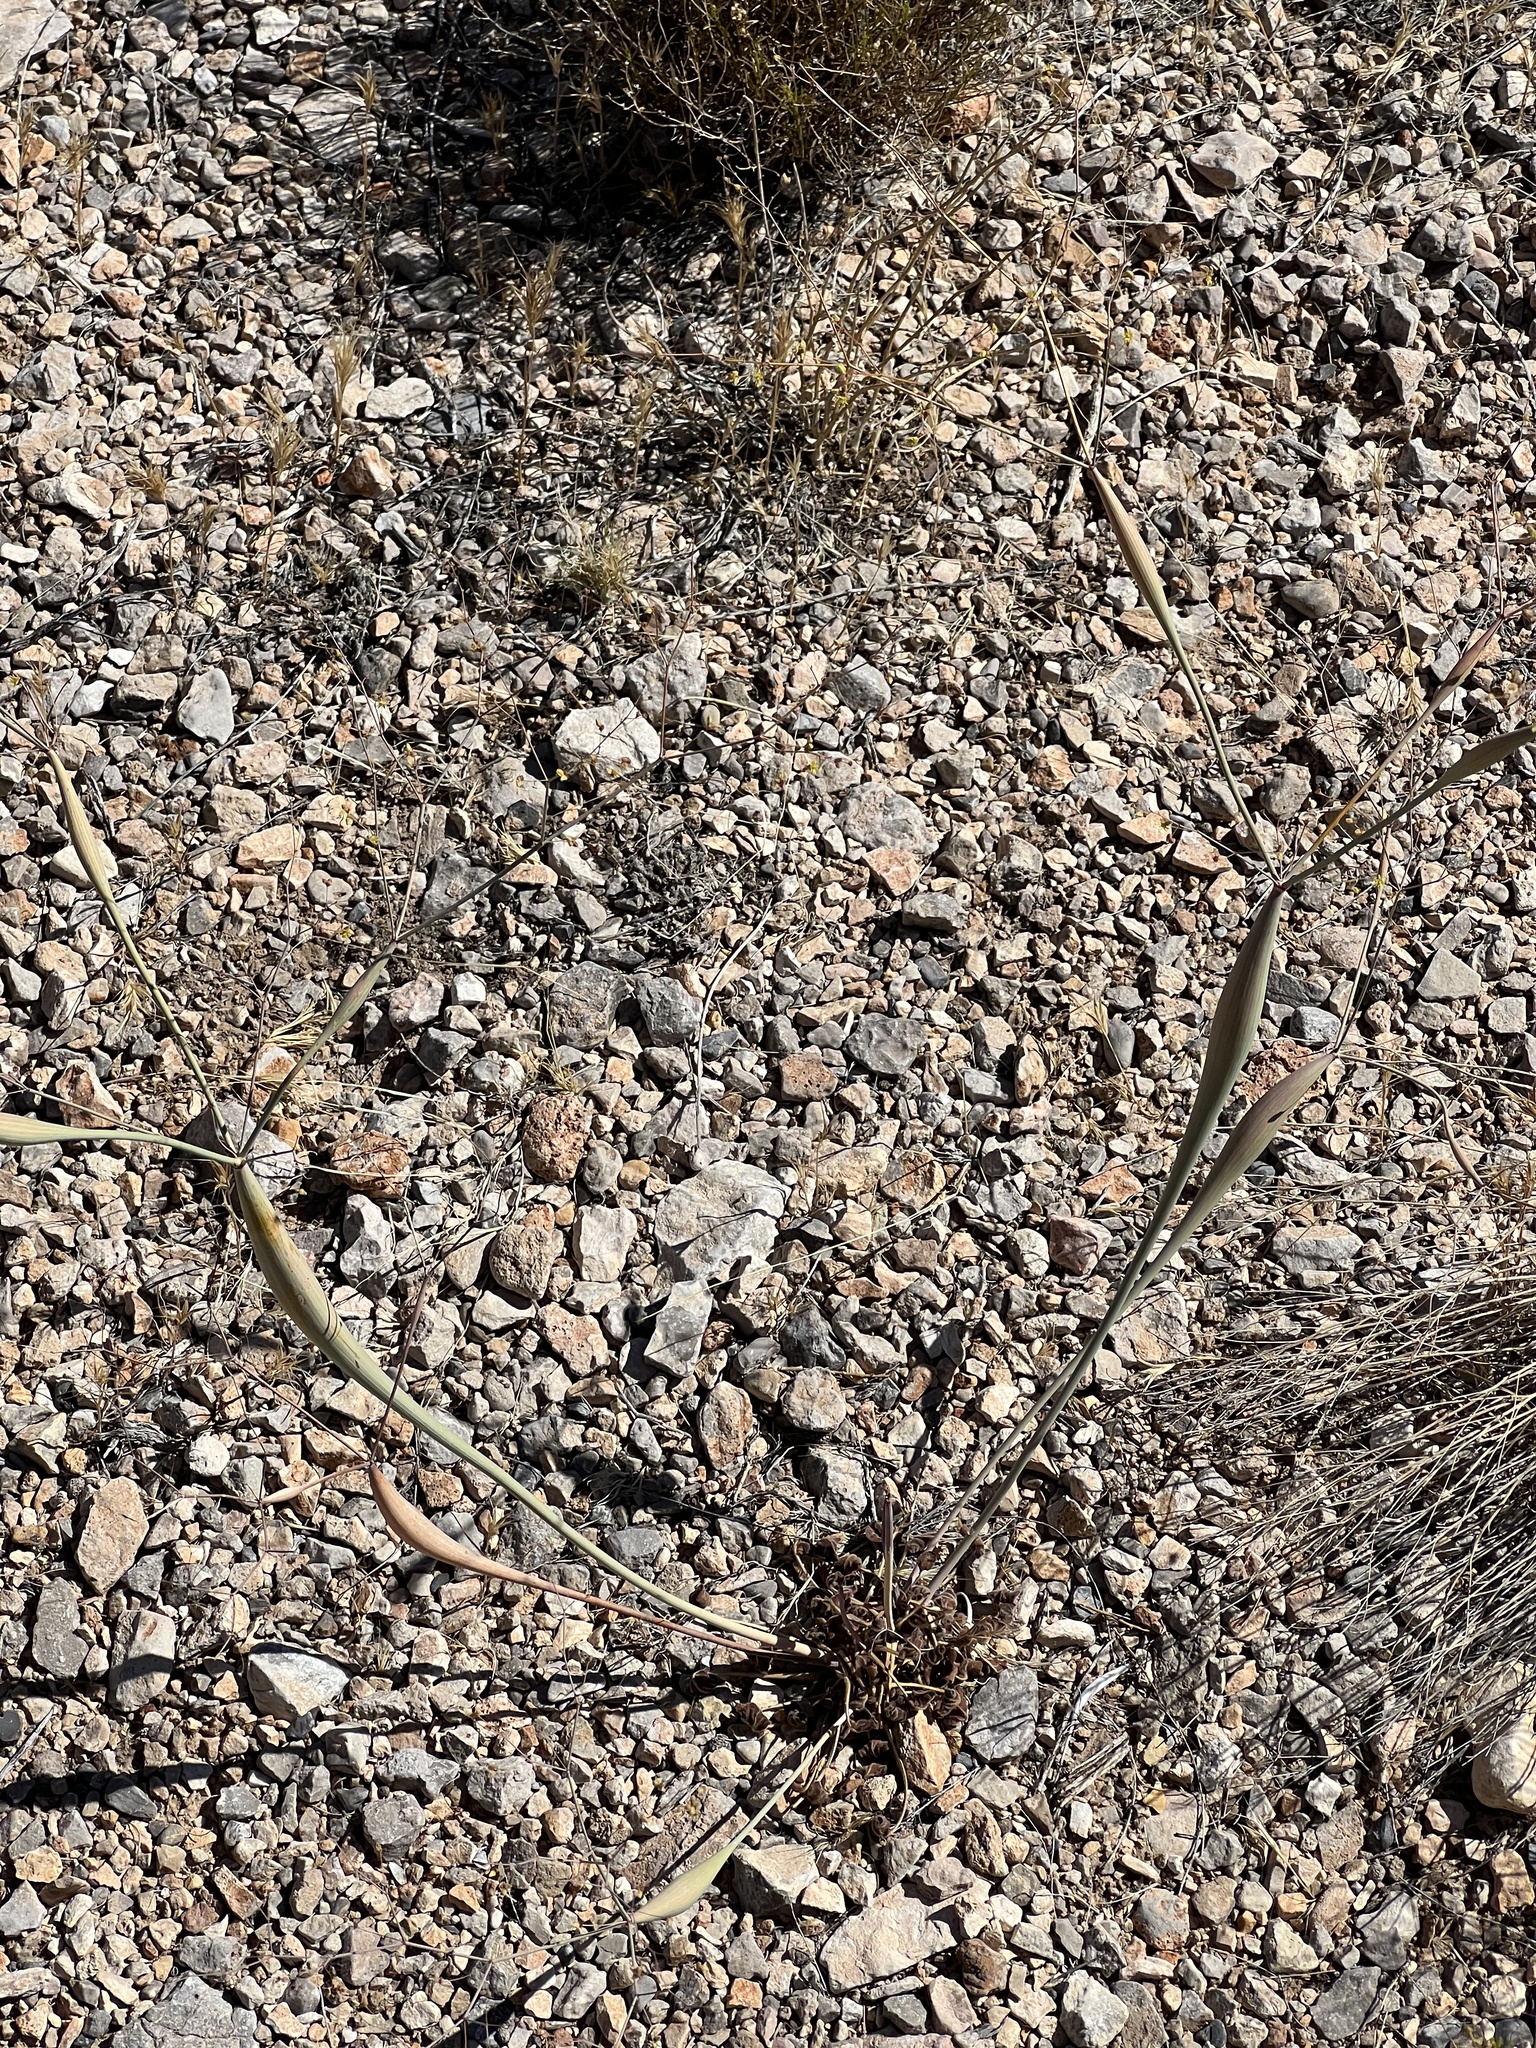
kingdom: Plantae
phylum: Tracheophyta
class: Magnoliopsida
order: Caryophyllales
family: Polygonaceae
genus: Eriogonum
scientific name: Eriogonum inflatum
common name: Desert trumpet
